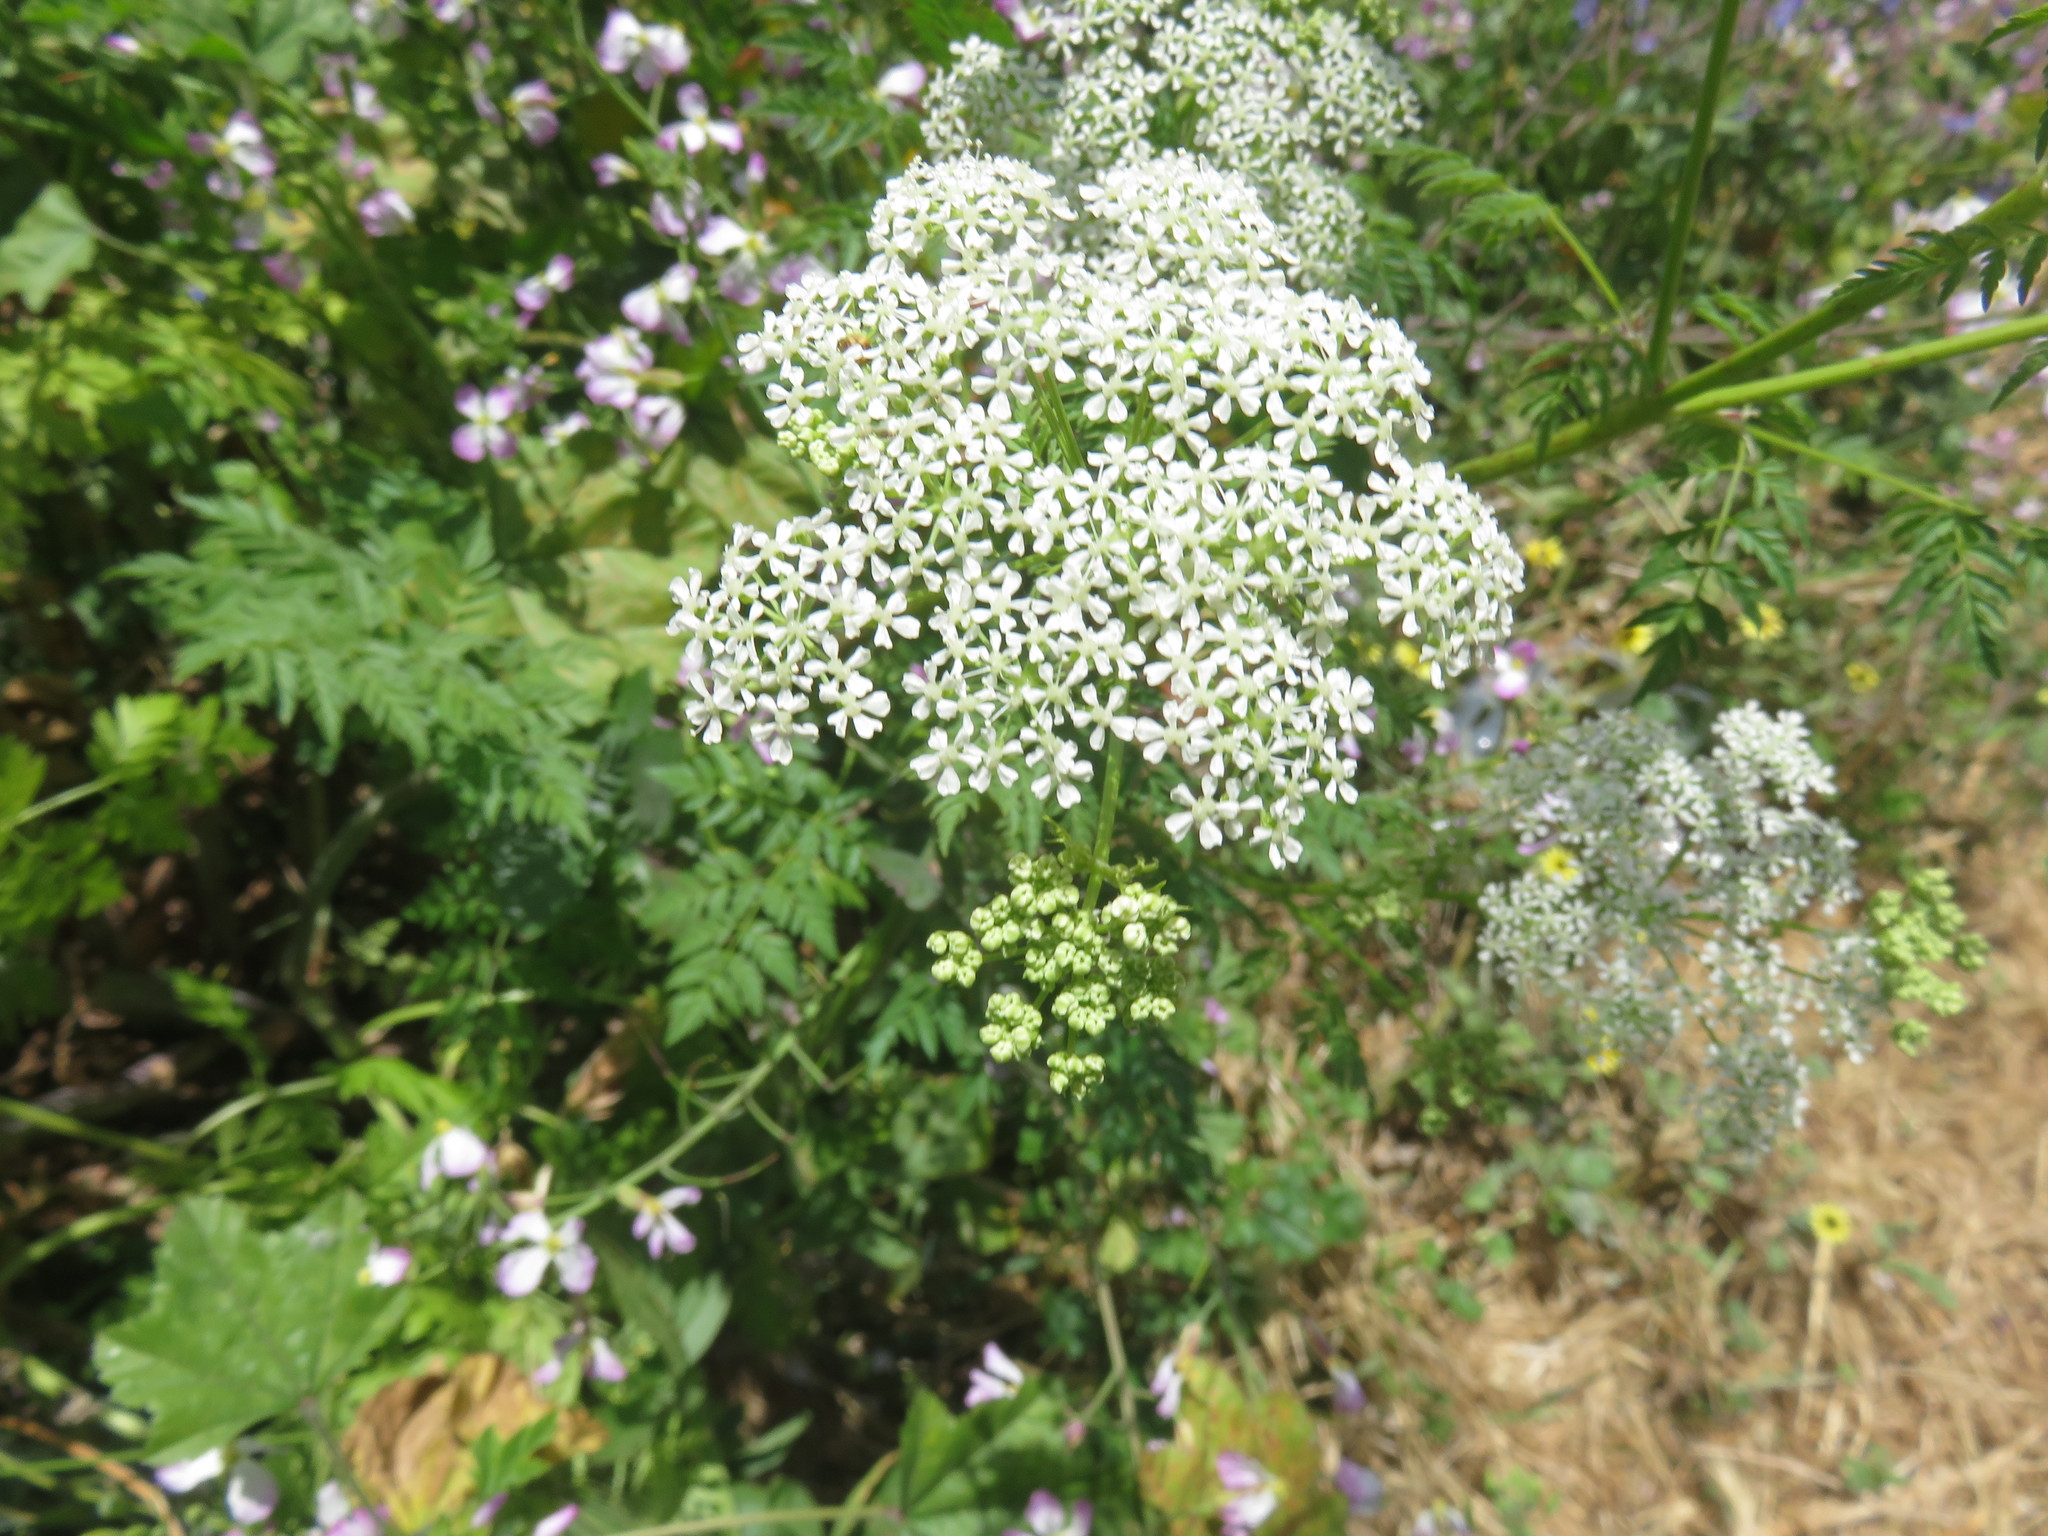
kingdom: Plantae
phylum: Tracheophyta
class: Magnoliopsida
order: Apiales
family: Apiaceae
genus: Conium
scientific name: Conium maculatum
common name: Hemlock
